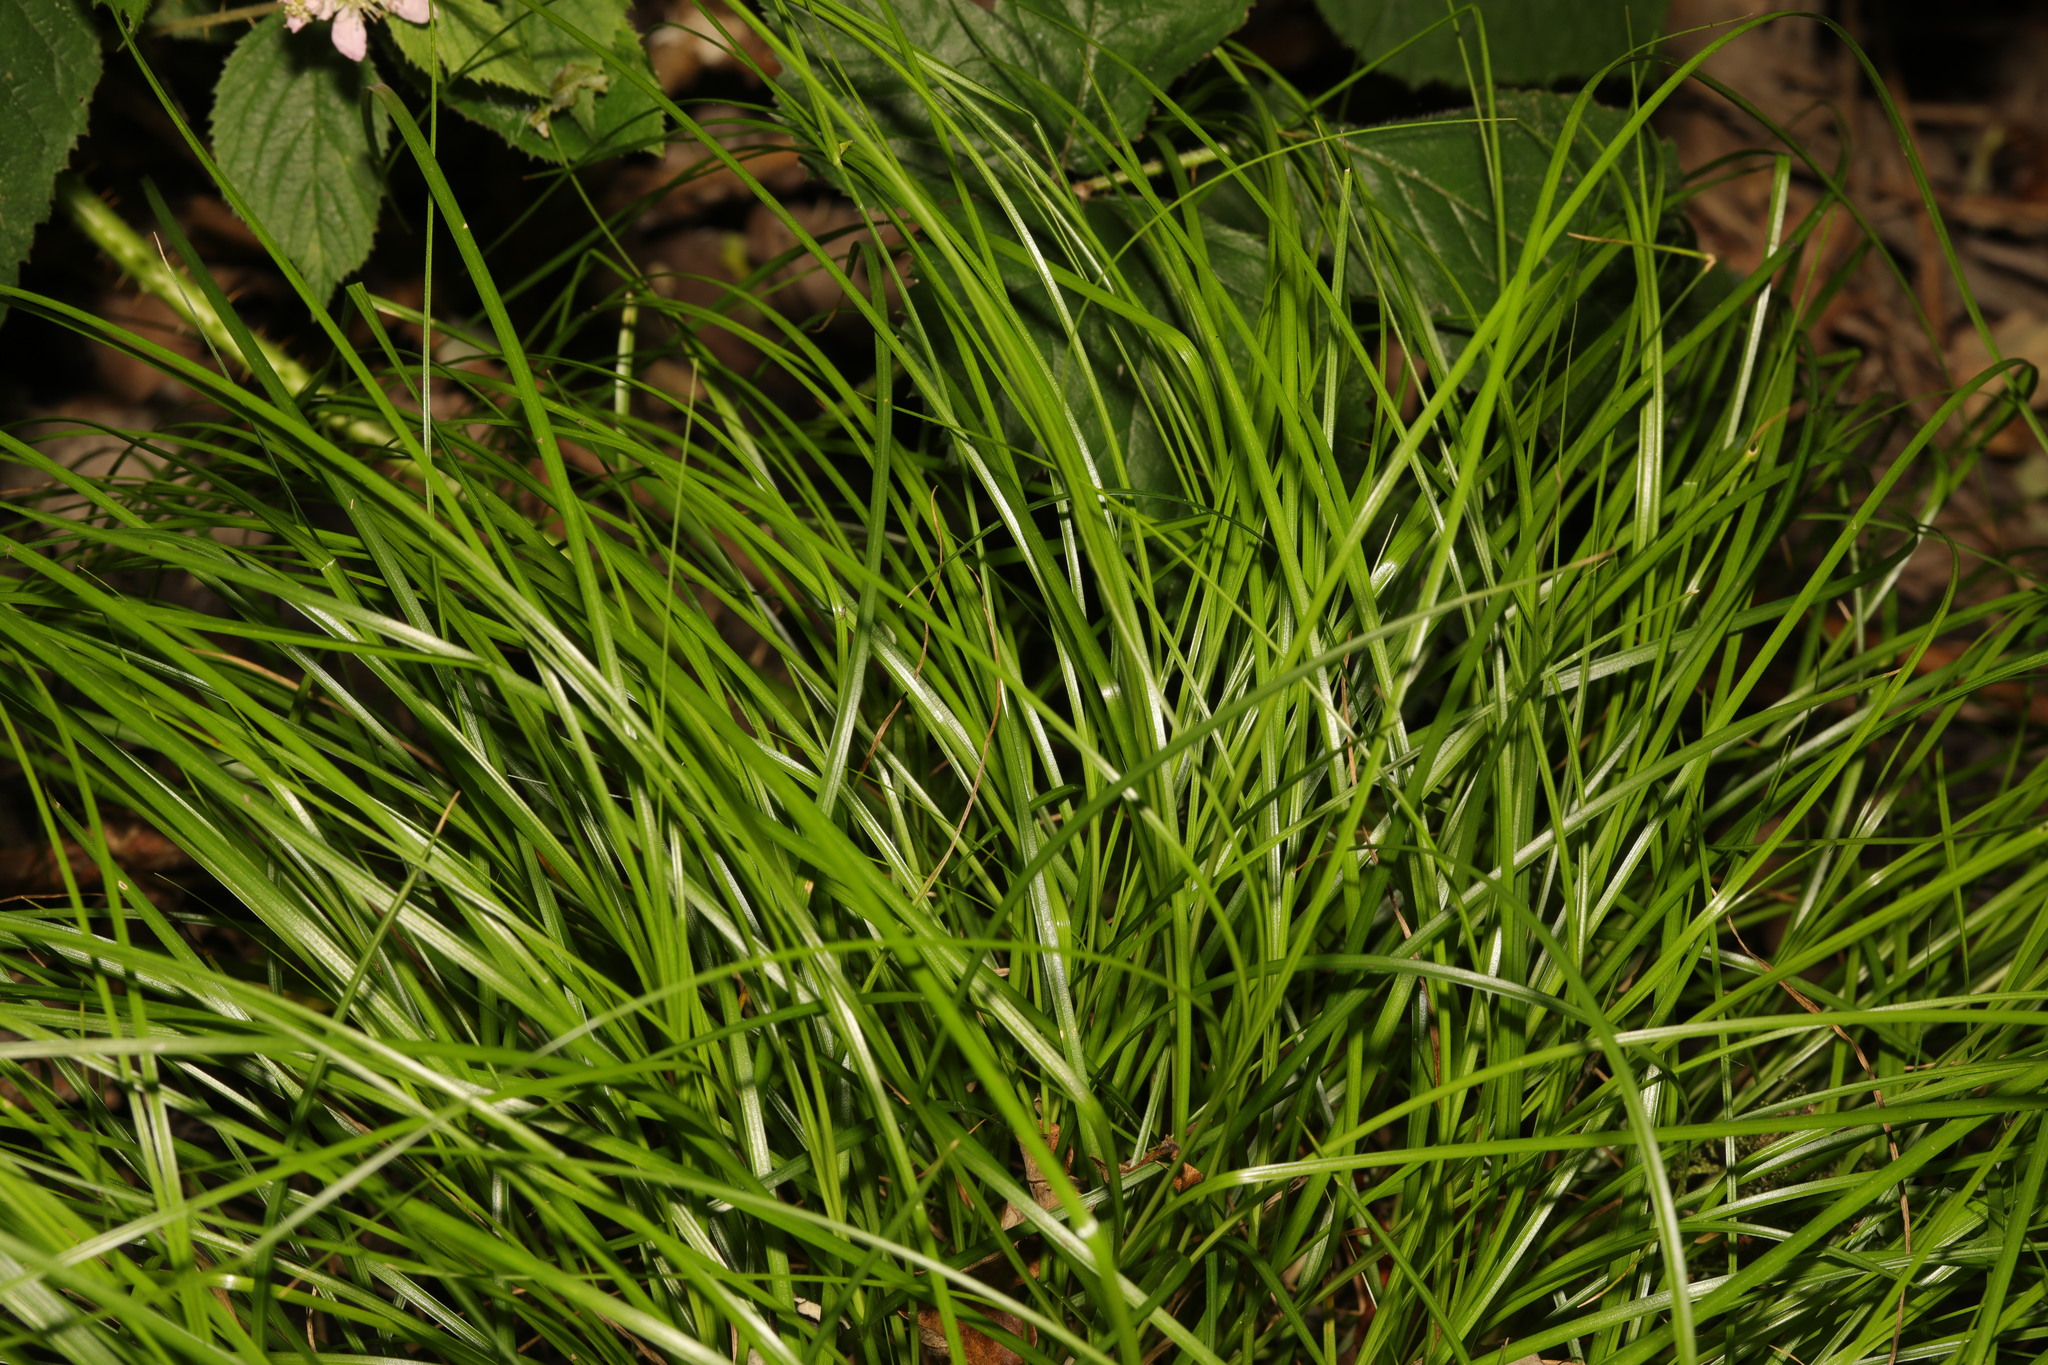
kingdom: Plantae
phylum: Tracheophyta
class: Liliopsida
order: Poales
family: Cyperaceae
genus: Carex
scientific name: Carex remota
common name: Remote sedge
